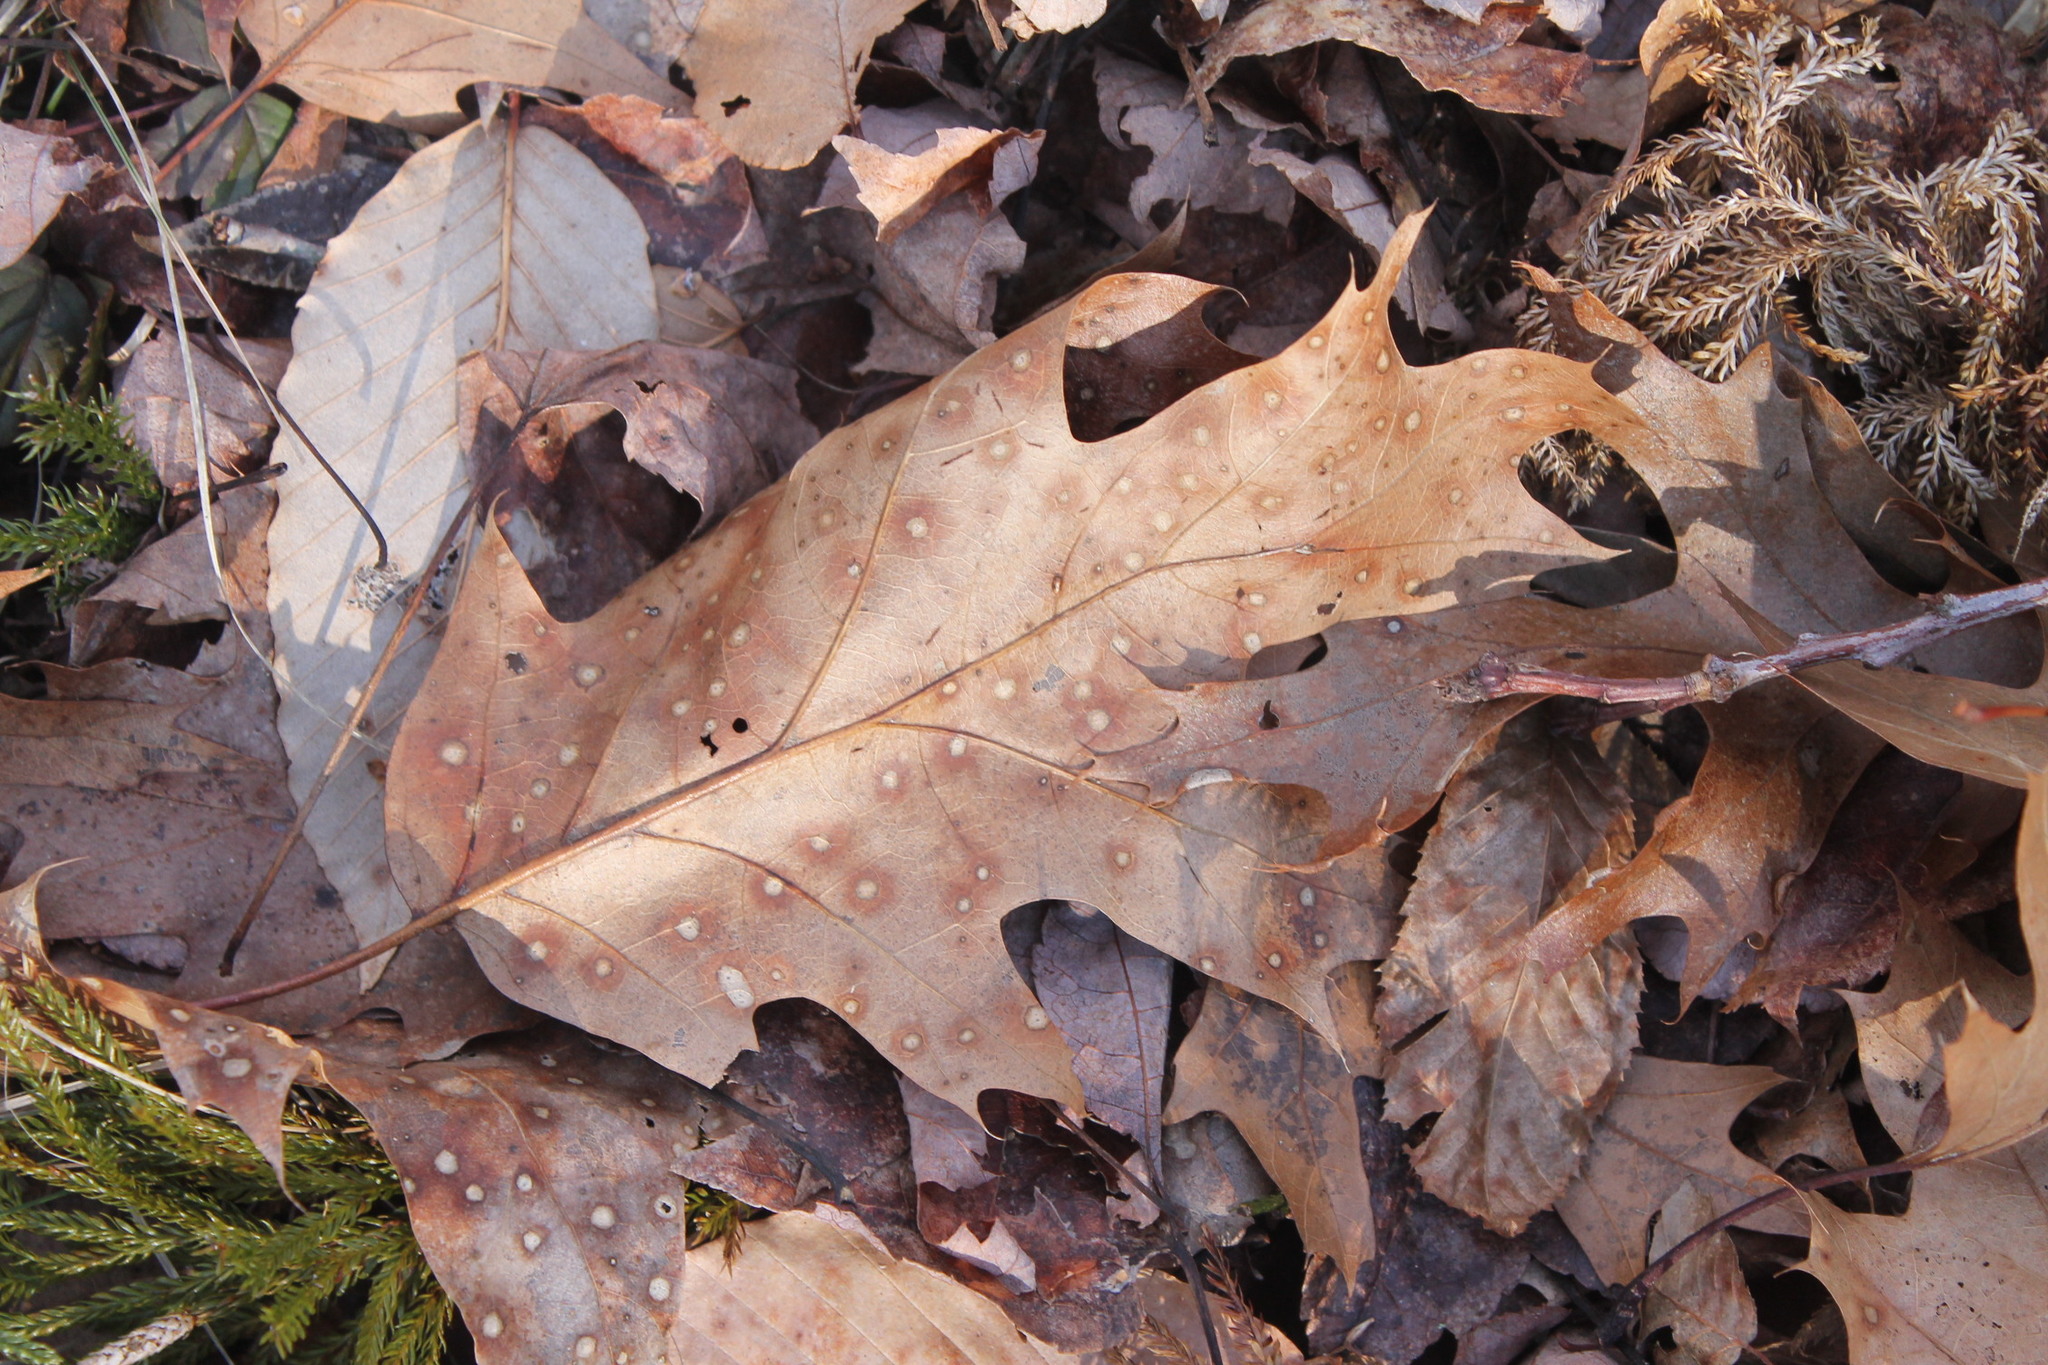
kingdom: Fungi
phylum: Ascomycota
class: Sordariomycetes
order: Diaporthales
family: Melanconidaceae
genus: Dicarpella
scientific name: Dicarpella dryina
